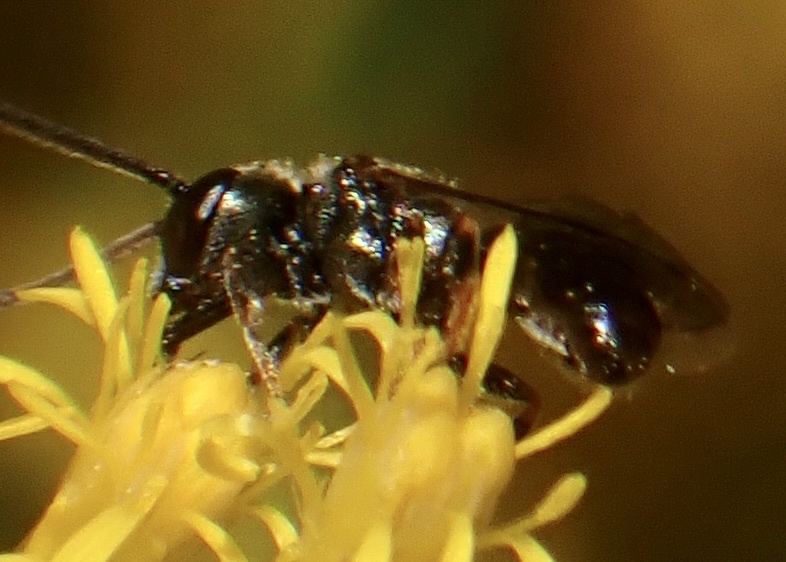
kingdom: Animalia
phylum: Arthropoda
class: Insecta
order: Hymenoptera
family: Halictidae
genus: Dialictus
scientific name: Dialictus
